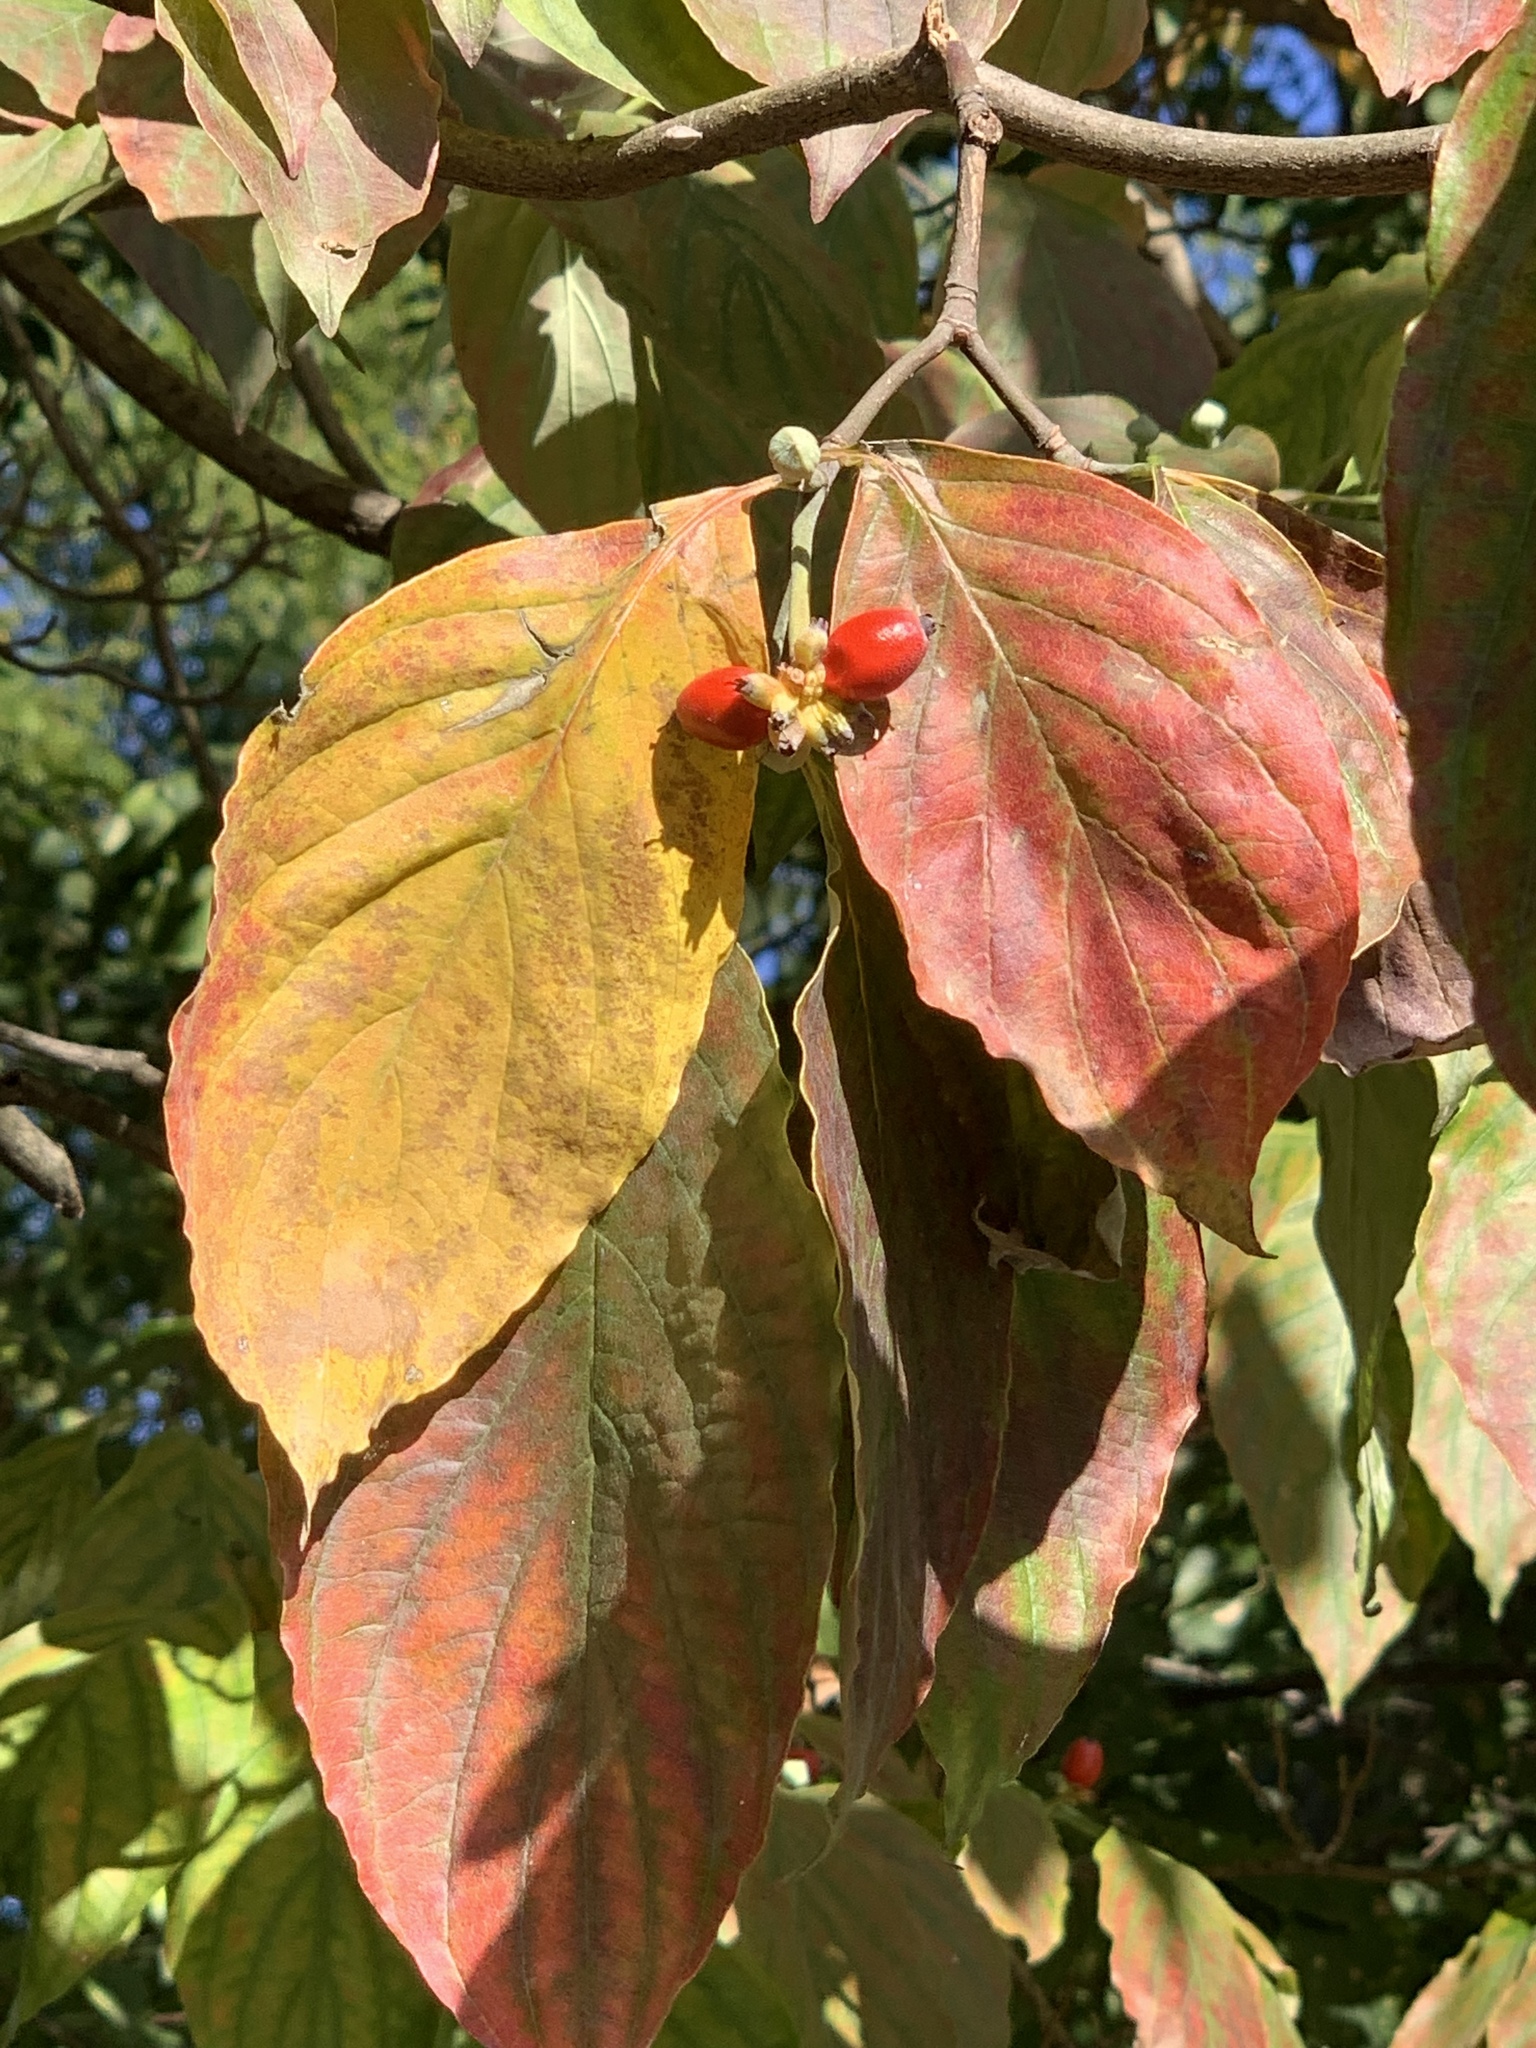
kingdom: Plantae
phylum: Tracheophyta
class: Magnoliopsida
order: Cornales
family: Cornaceae
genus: Cornus
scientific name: Cornus florida
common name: Flowering dogwood
